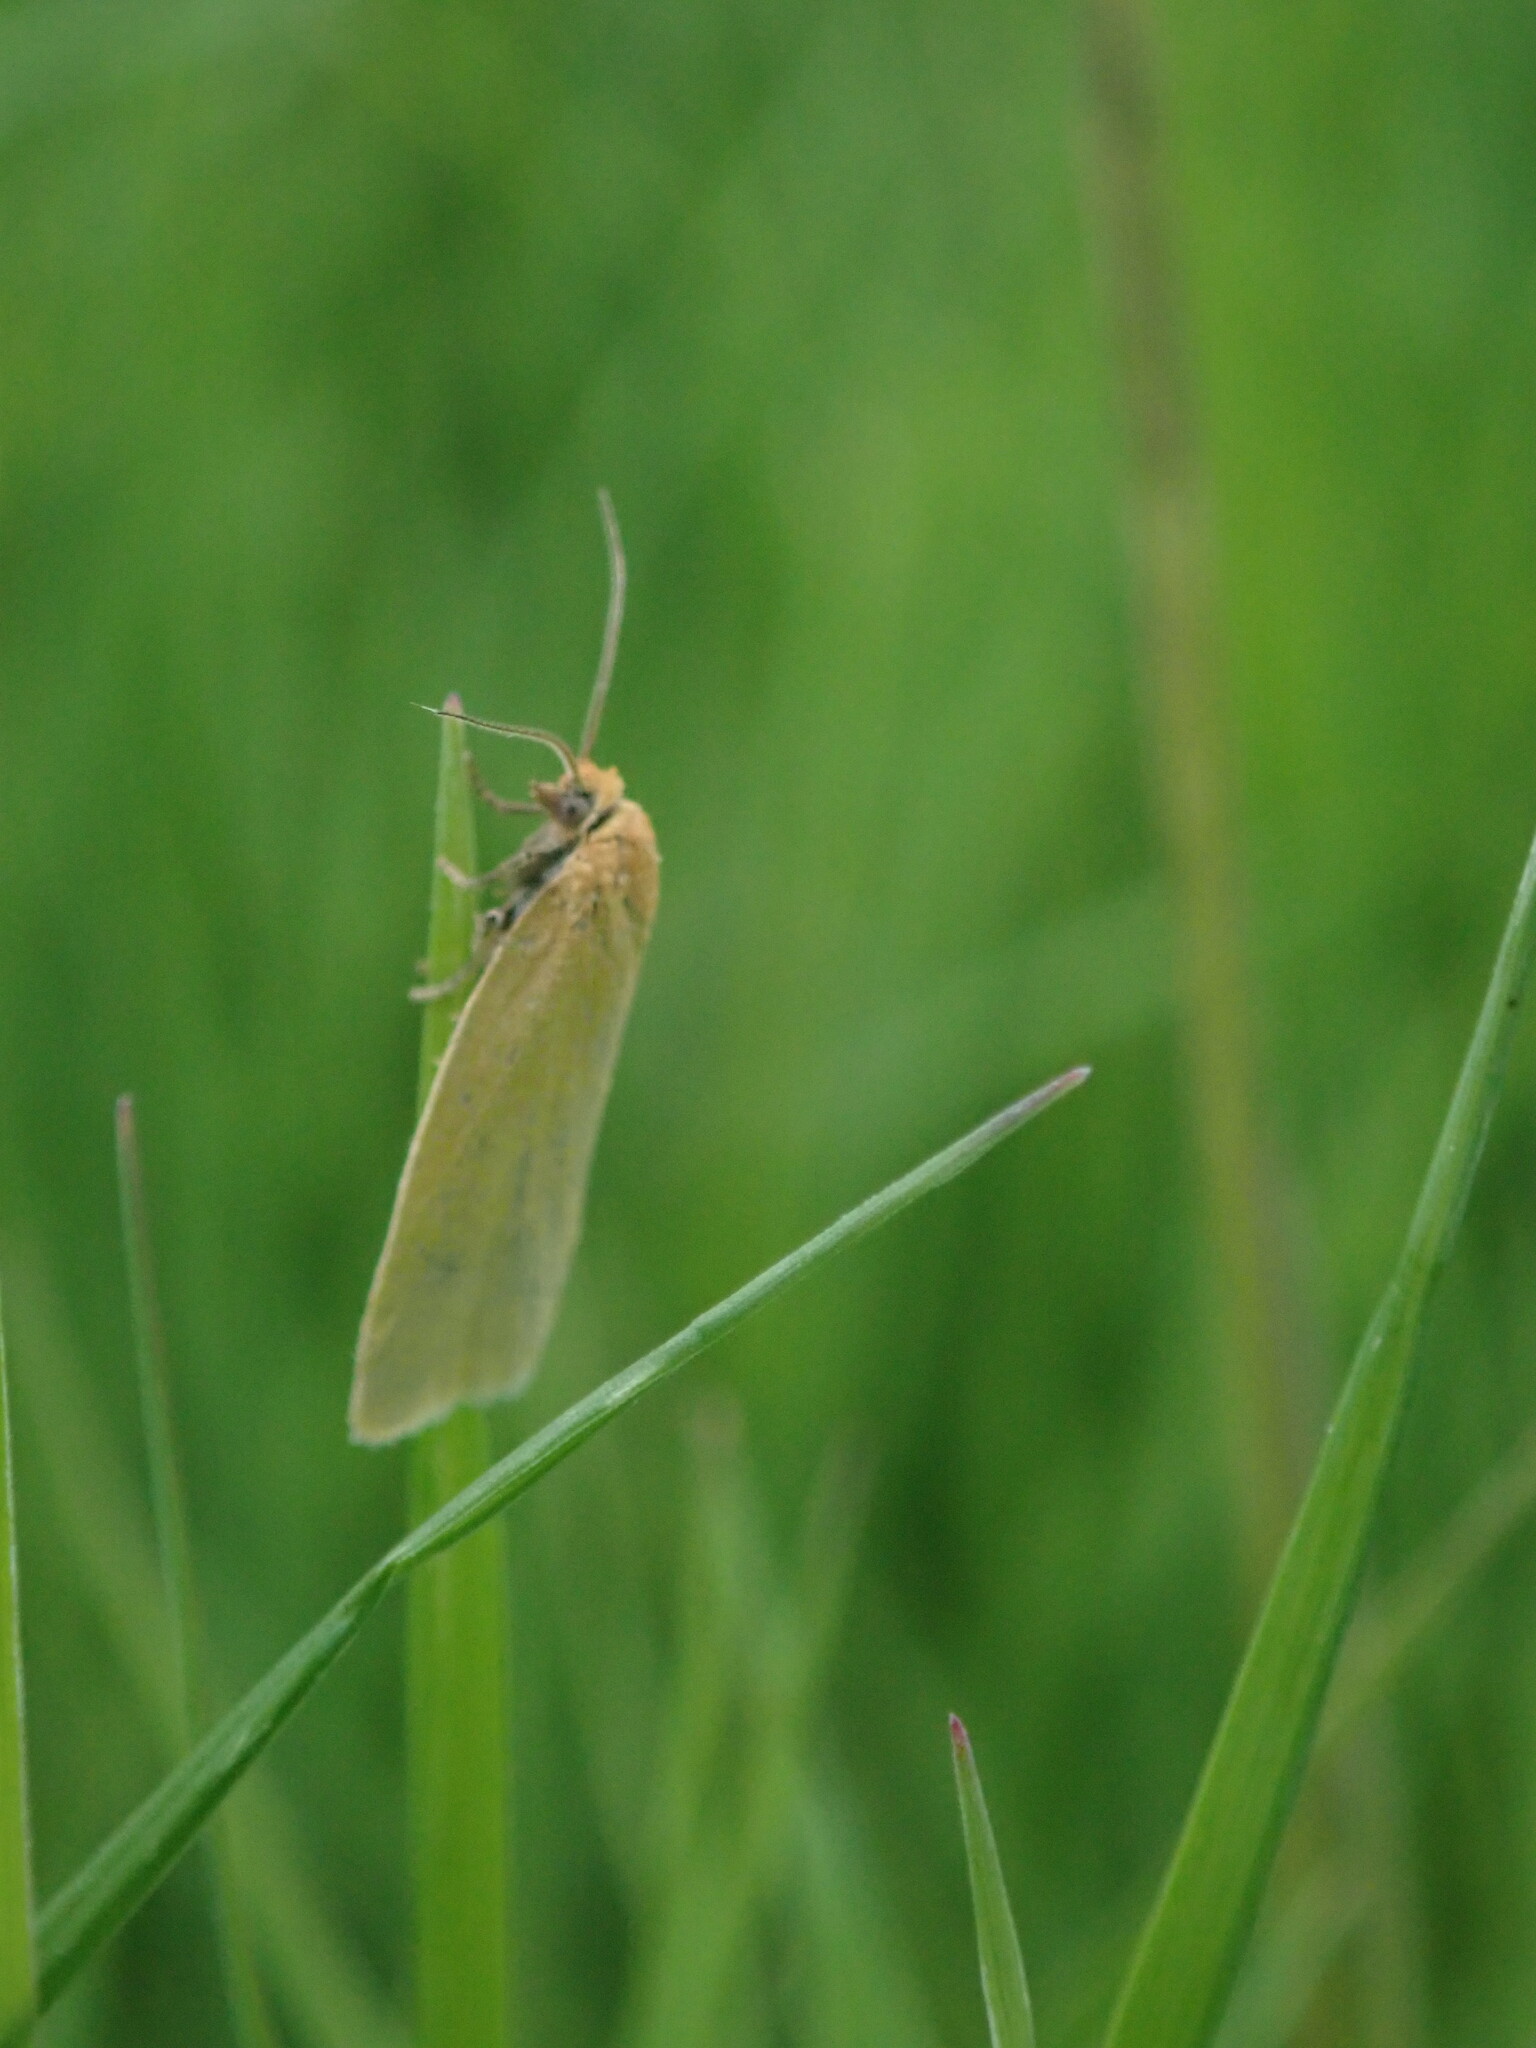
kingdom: Animalia
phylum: Arthropoda
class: Insecta
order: Lepidoptera
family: Tortricidae
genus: Aphelia
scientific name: Aphelia Zelotherses paleana
